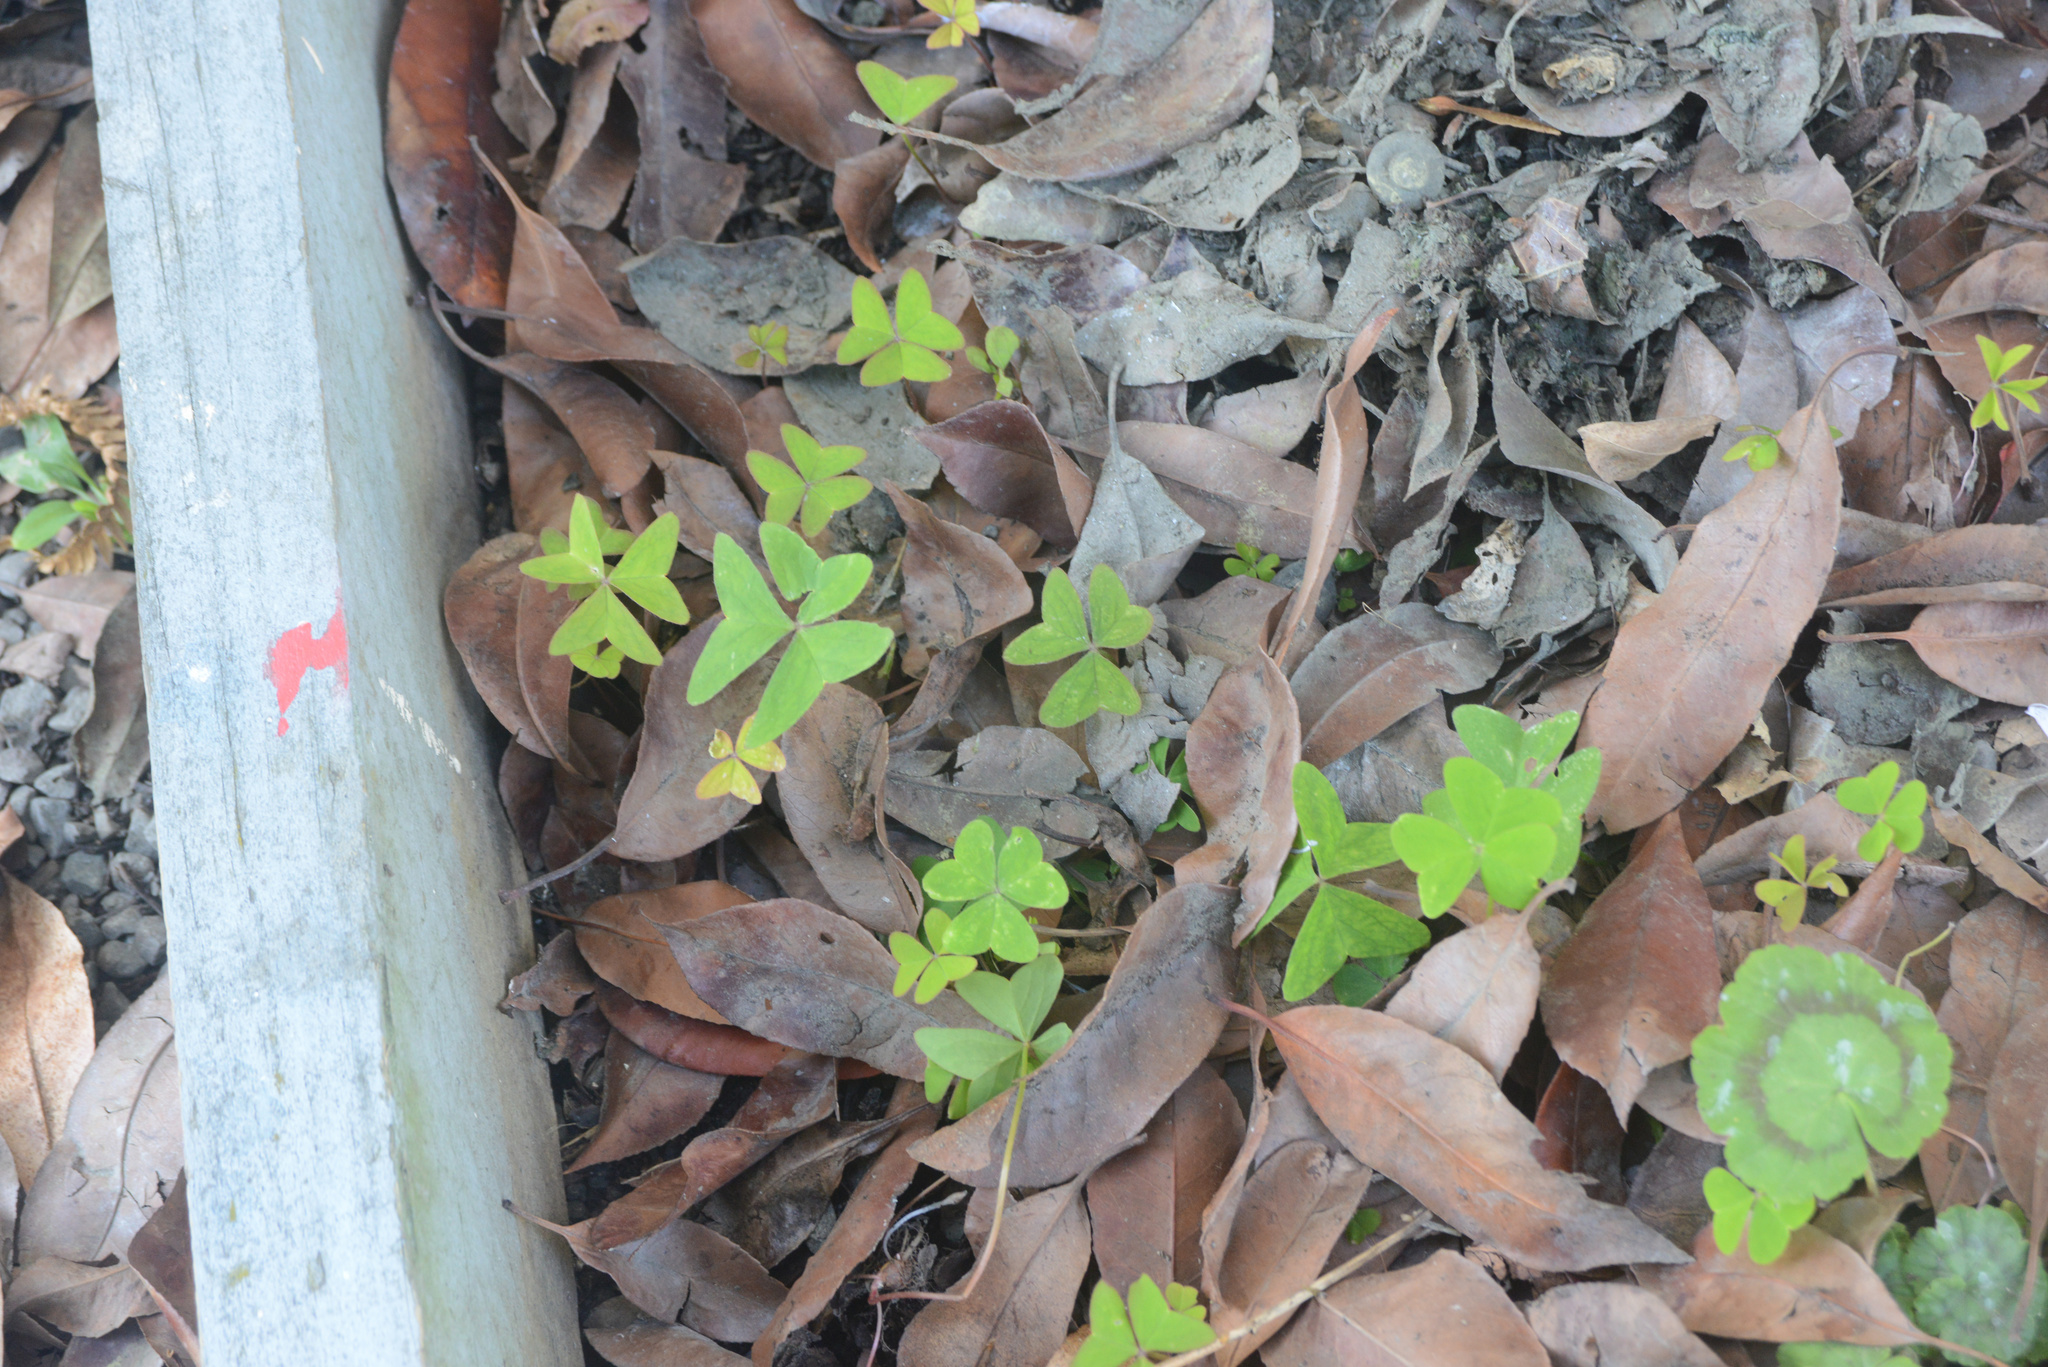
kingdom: Plantae
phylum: Tracheophyta
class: Magnoliopsida
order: Oxalidales
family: Oxalidaceae
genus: Oxalis
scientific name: Oxalis latifolia
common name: Garden pink-sorrel
